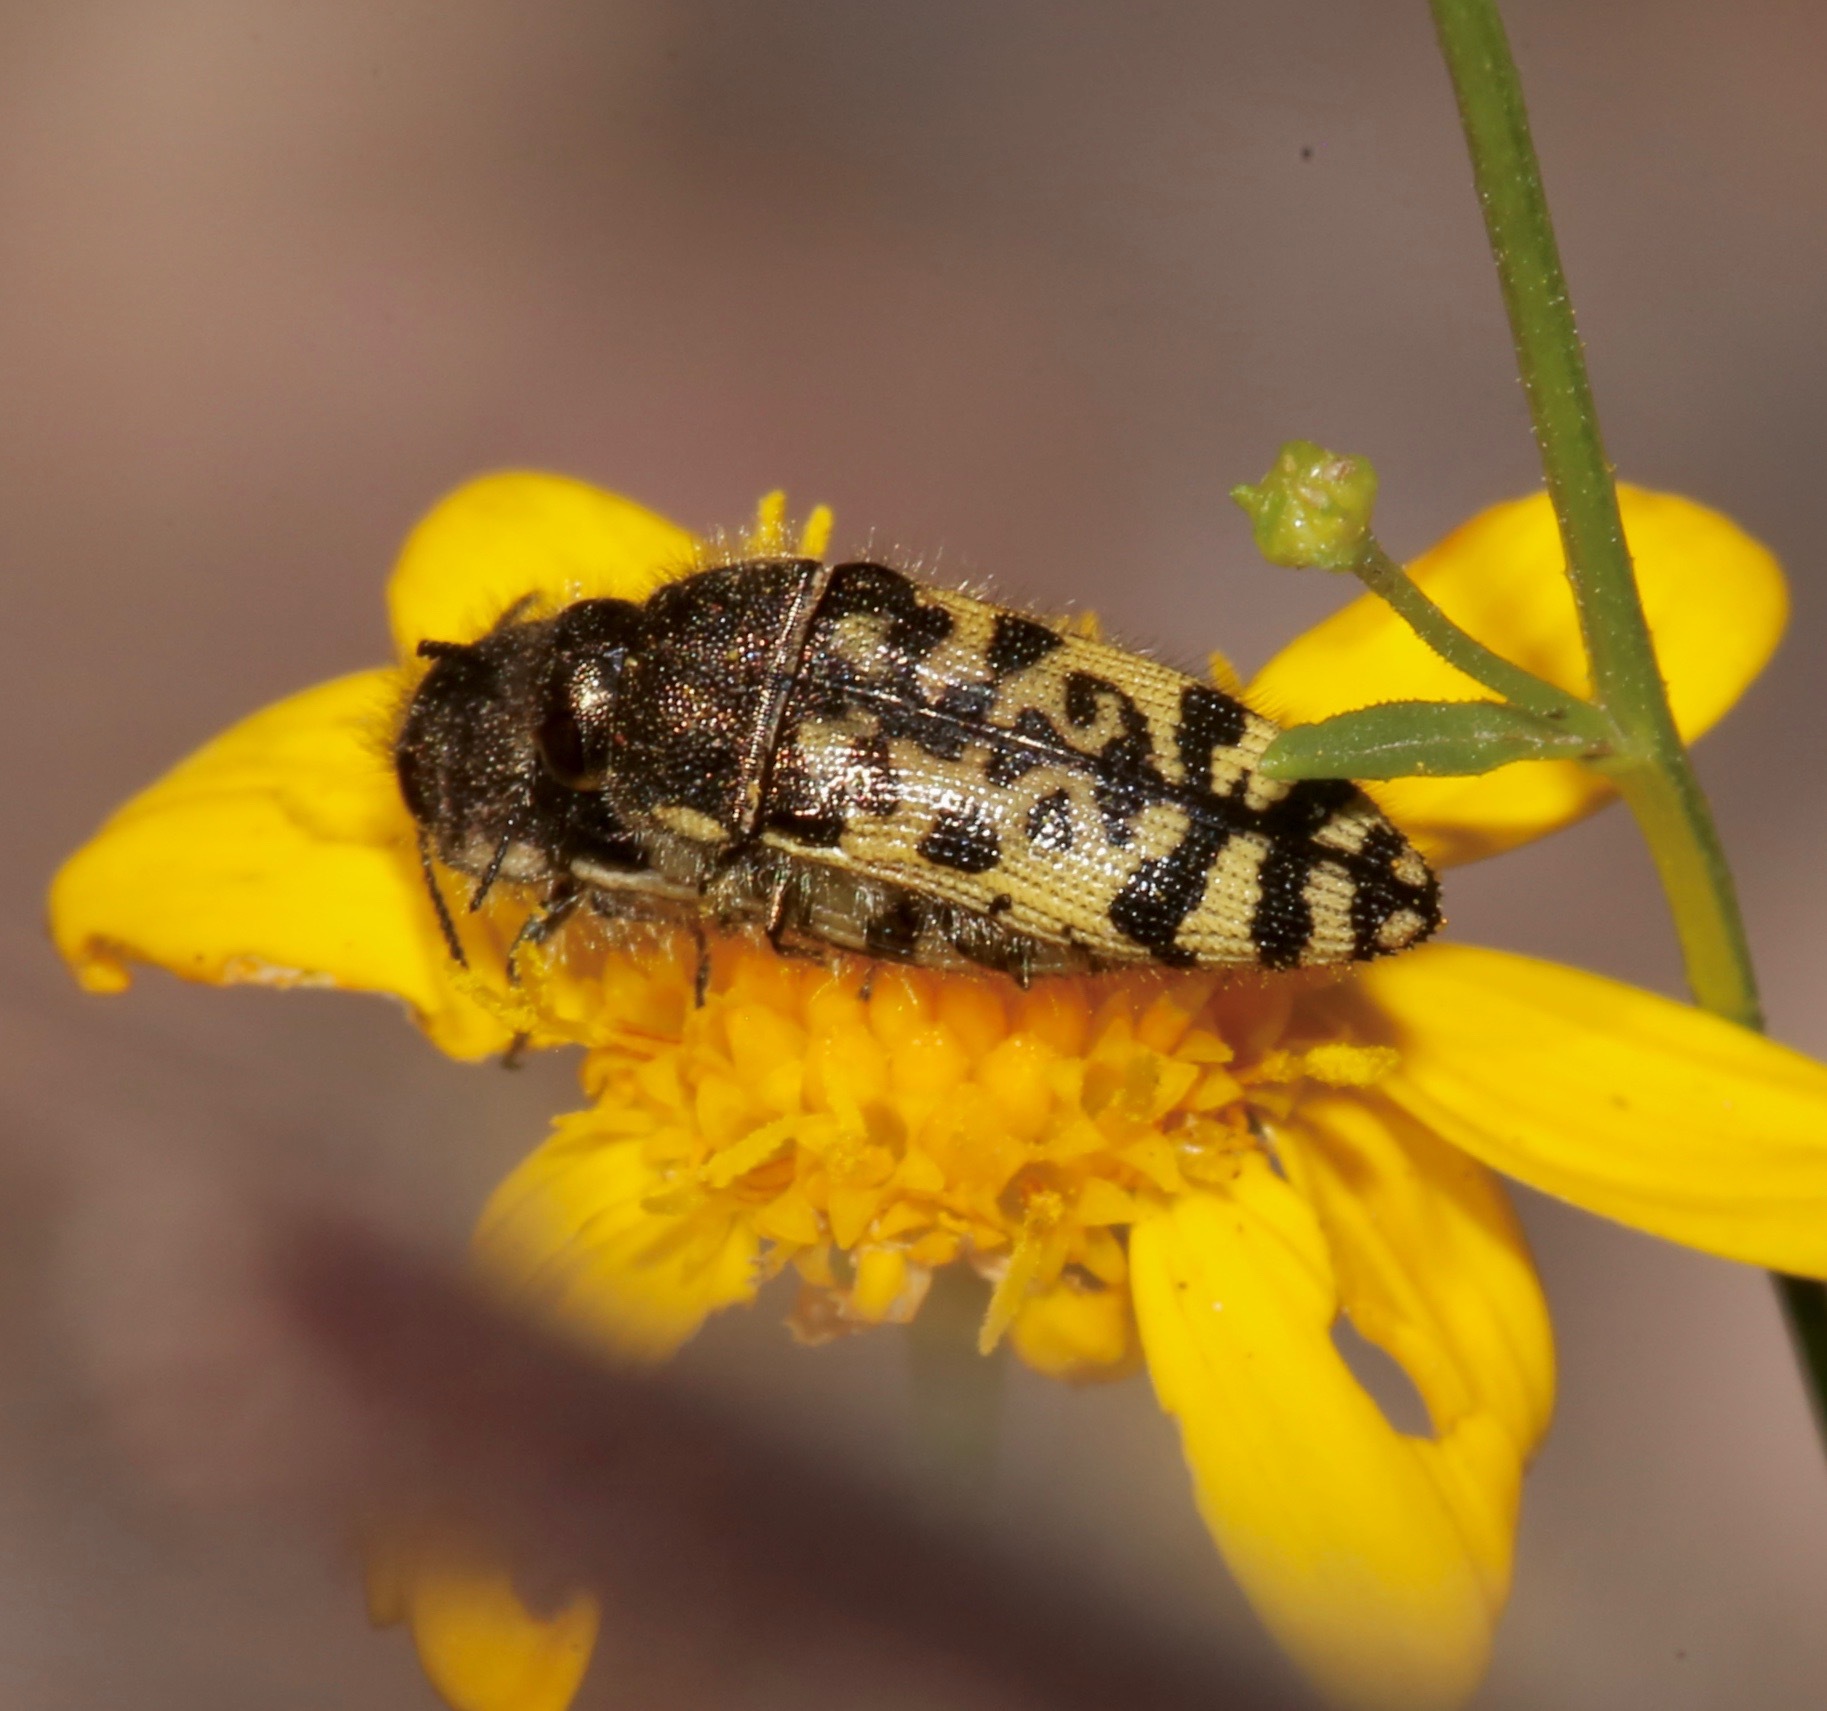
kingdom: Animalia
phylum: Arthropoda
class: Insecta
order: Coleoptera
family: Buprestidae
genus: Acmaeodera
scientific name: Acmaeodera decipiens
